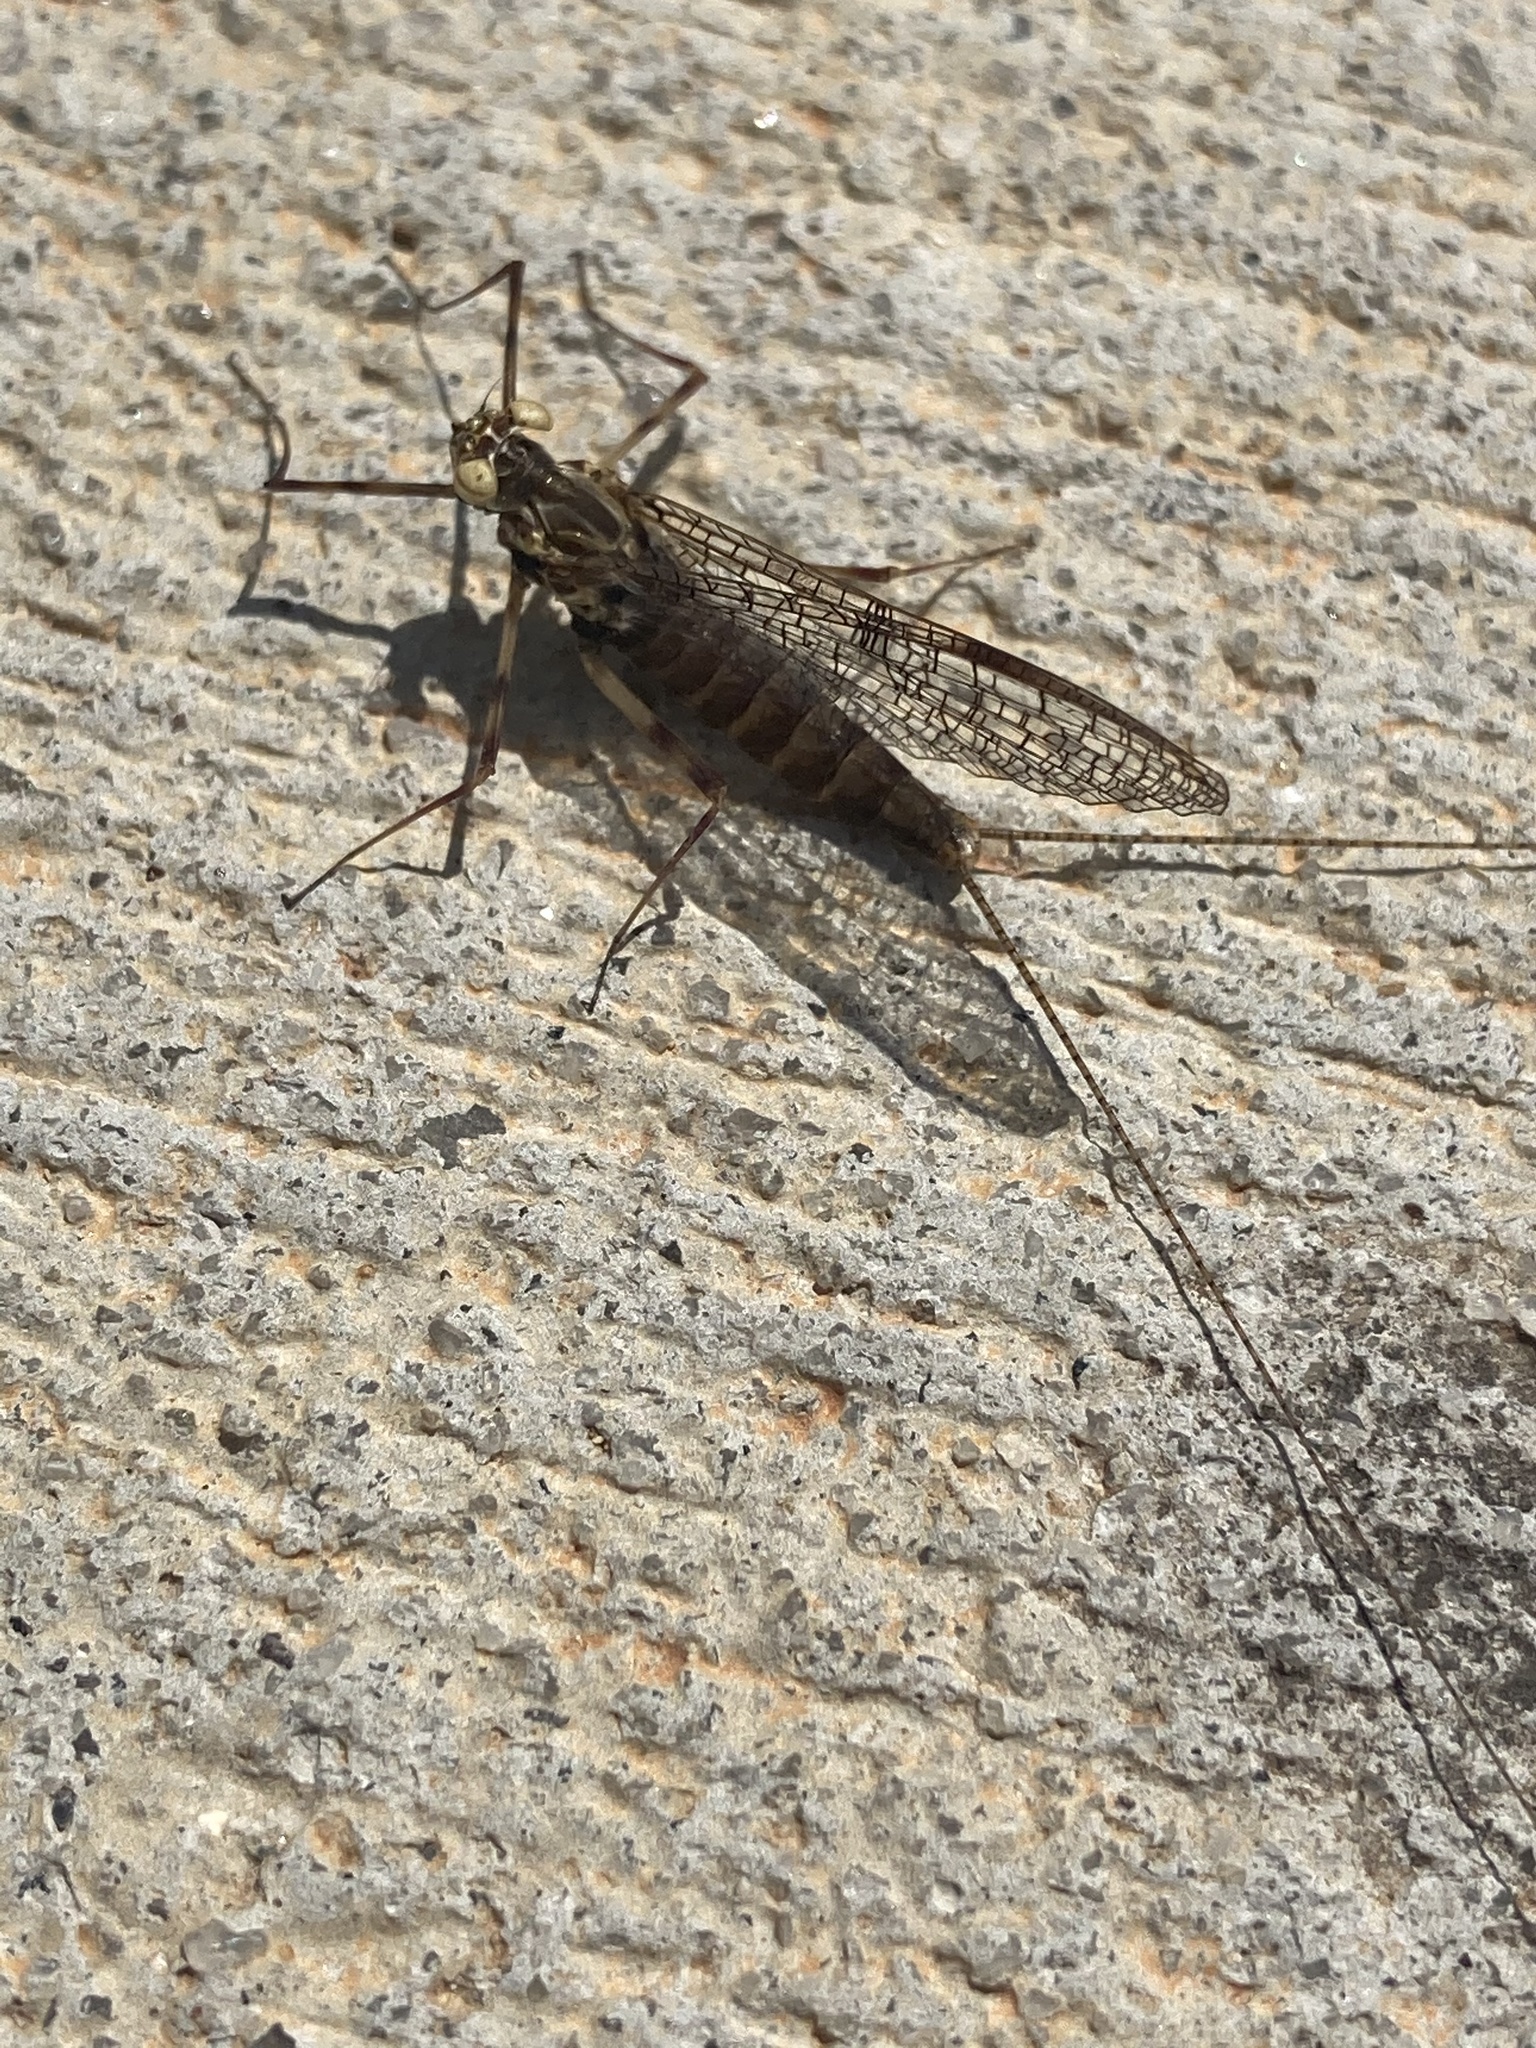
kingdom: Animalia
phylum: Arthropoda
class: Insecta
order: Ephemeroptera
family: Heptageniidae
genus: Stenonema
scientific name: Stenonema femoratum
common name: Dark cahill
